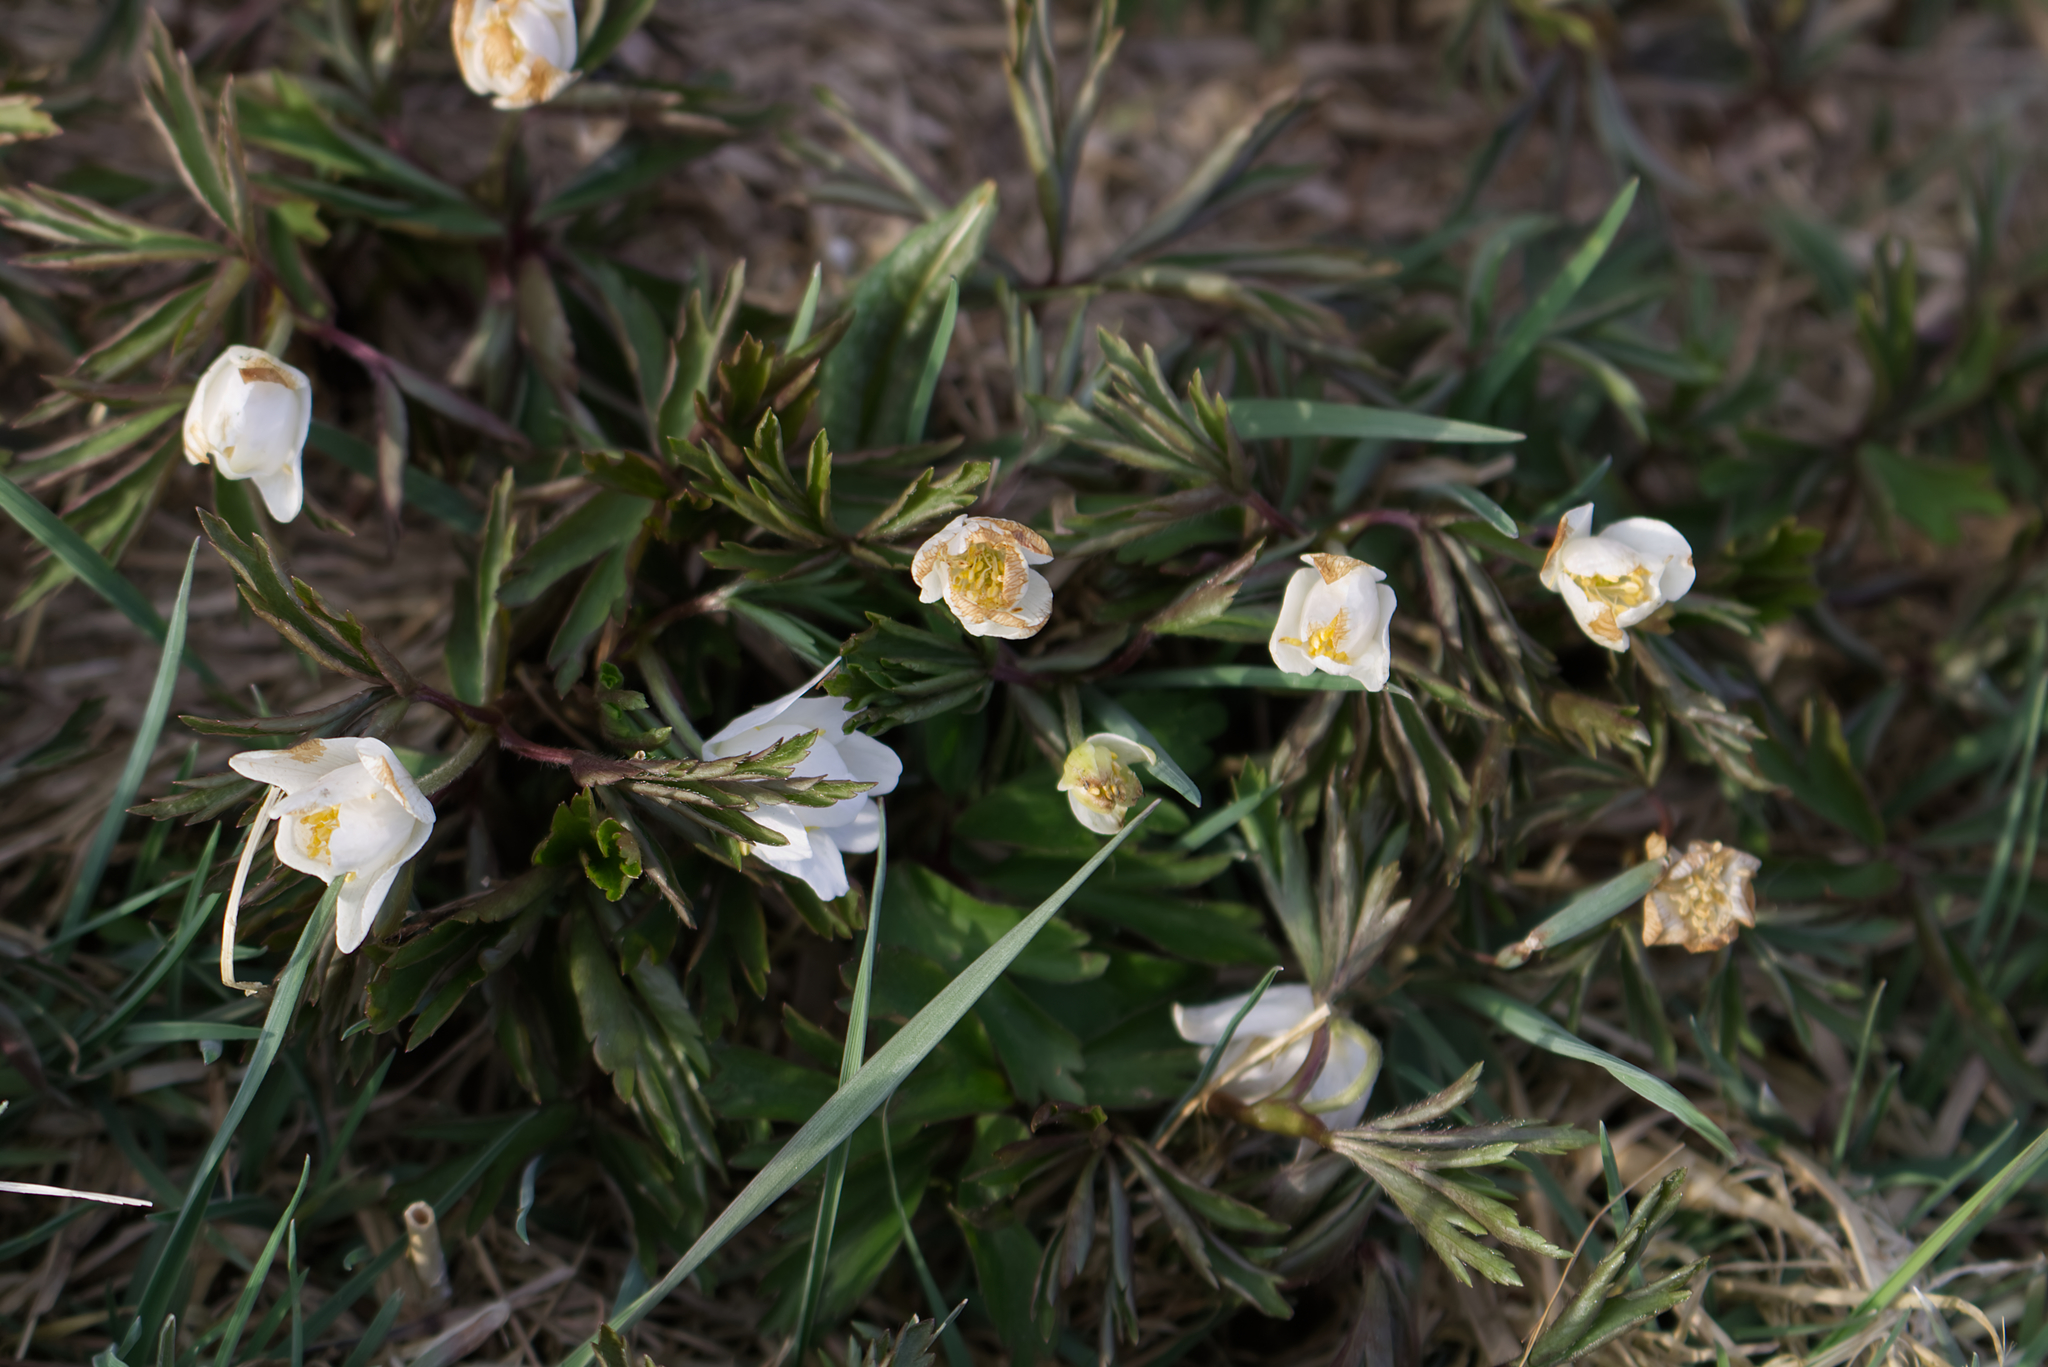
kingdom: Plantae
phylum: Tracheophyta
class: Magnoliopsida
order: Ranunculales
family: Ranunculaceae
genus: Anemone
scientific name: Anemone nemorosa
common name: Wood anemone
